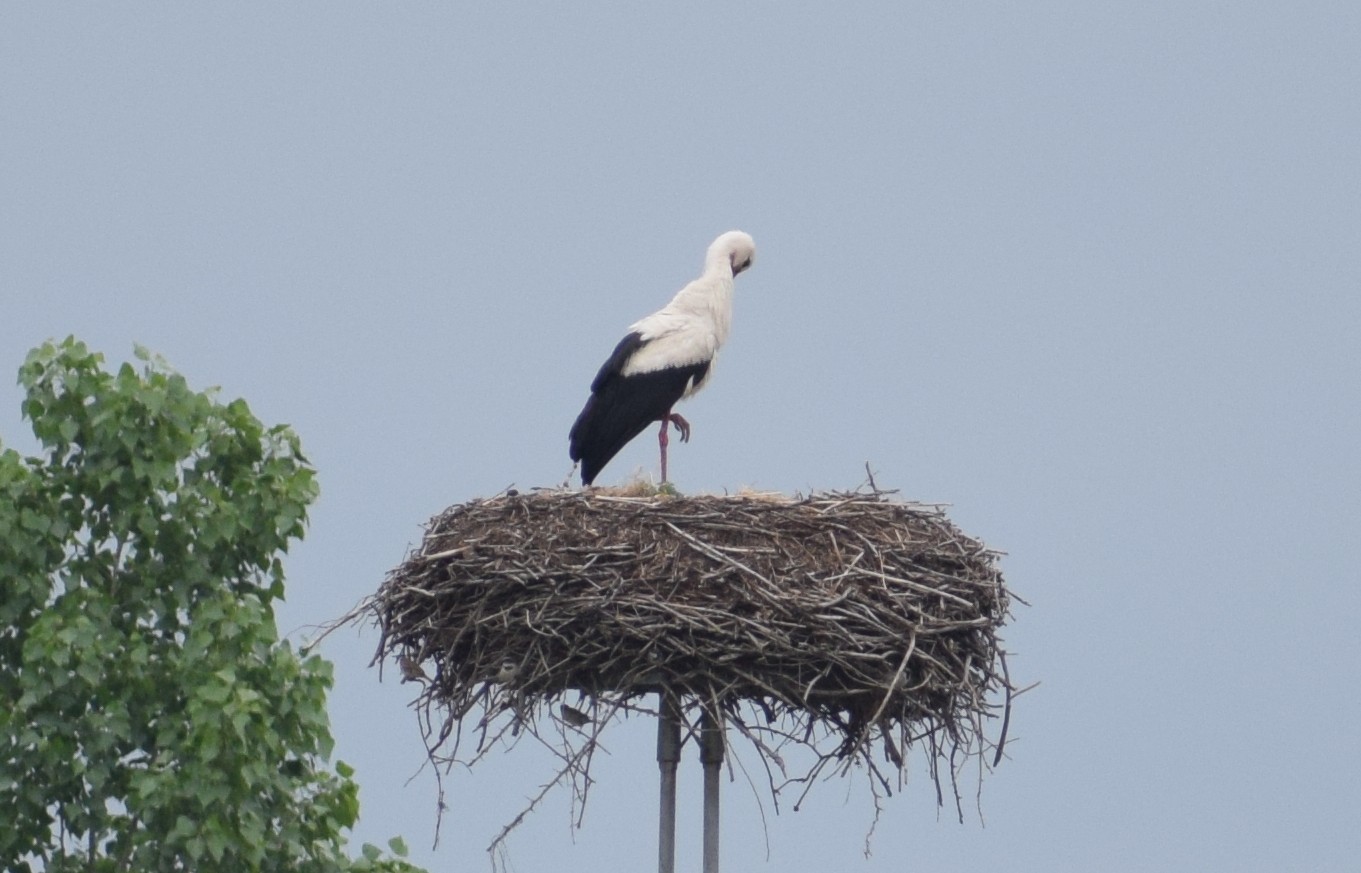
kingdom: Animalia
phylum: Chordata
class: Aves
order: Ciconiiformes
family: Ciconiidae
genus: Ciconia
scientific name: Ciconia ciconia
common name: White stork
